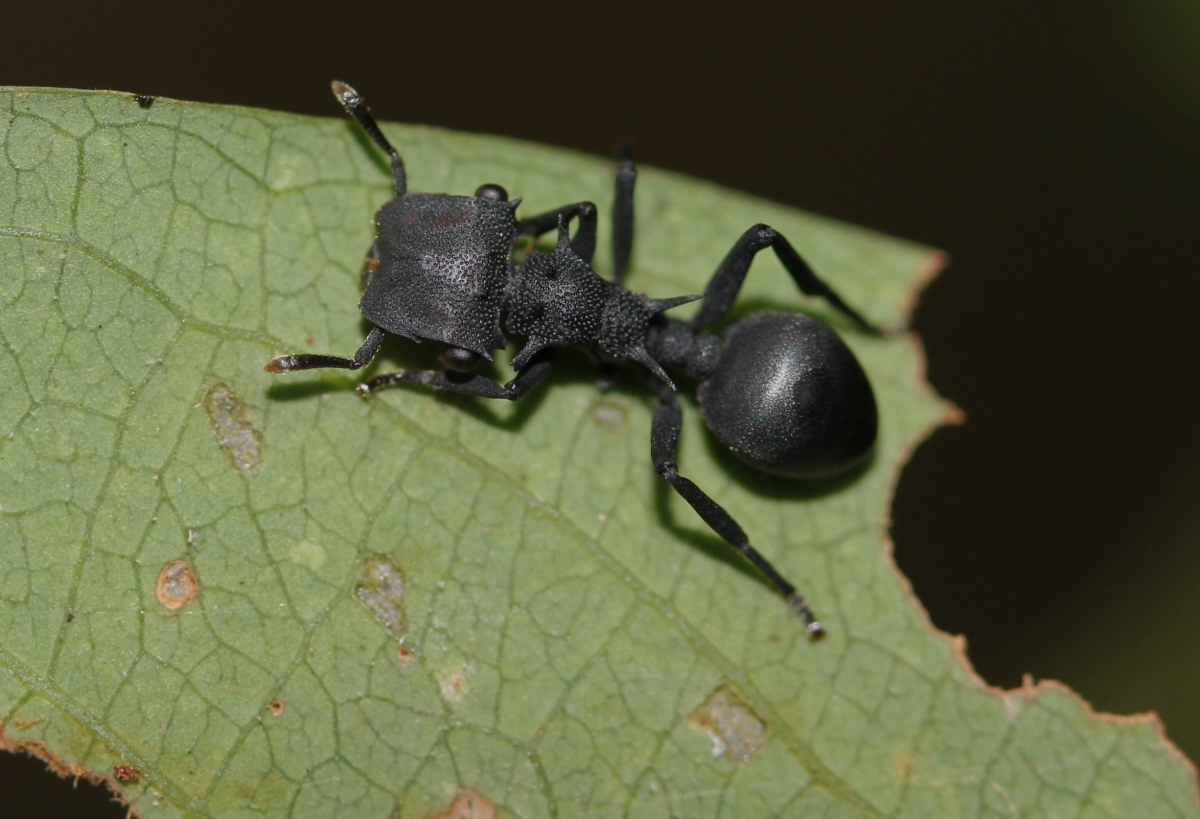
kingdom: Animalia
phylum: Arthropoda
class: Insecta
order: Hymenoptera
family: Formicidae
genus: Cephalotes
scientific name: Cephalotes placidus
